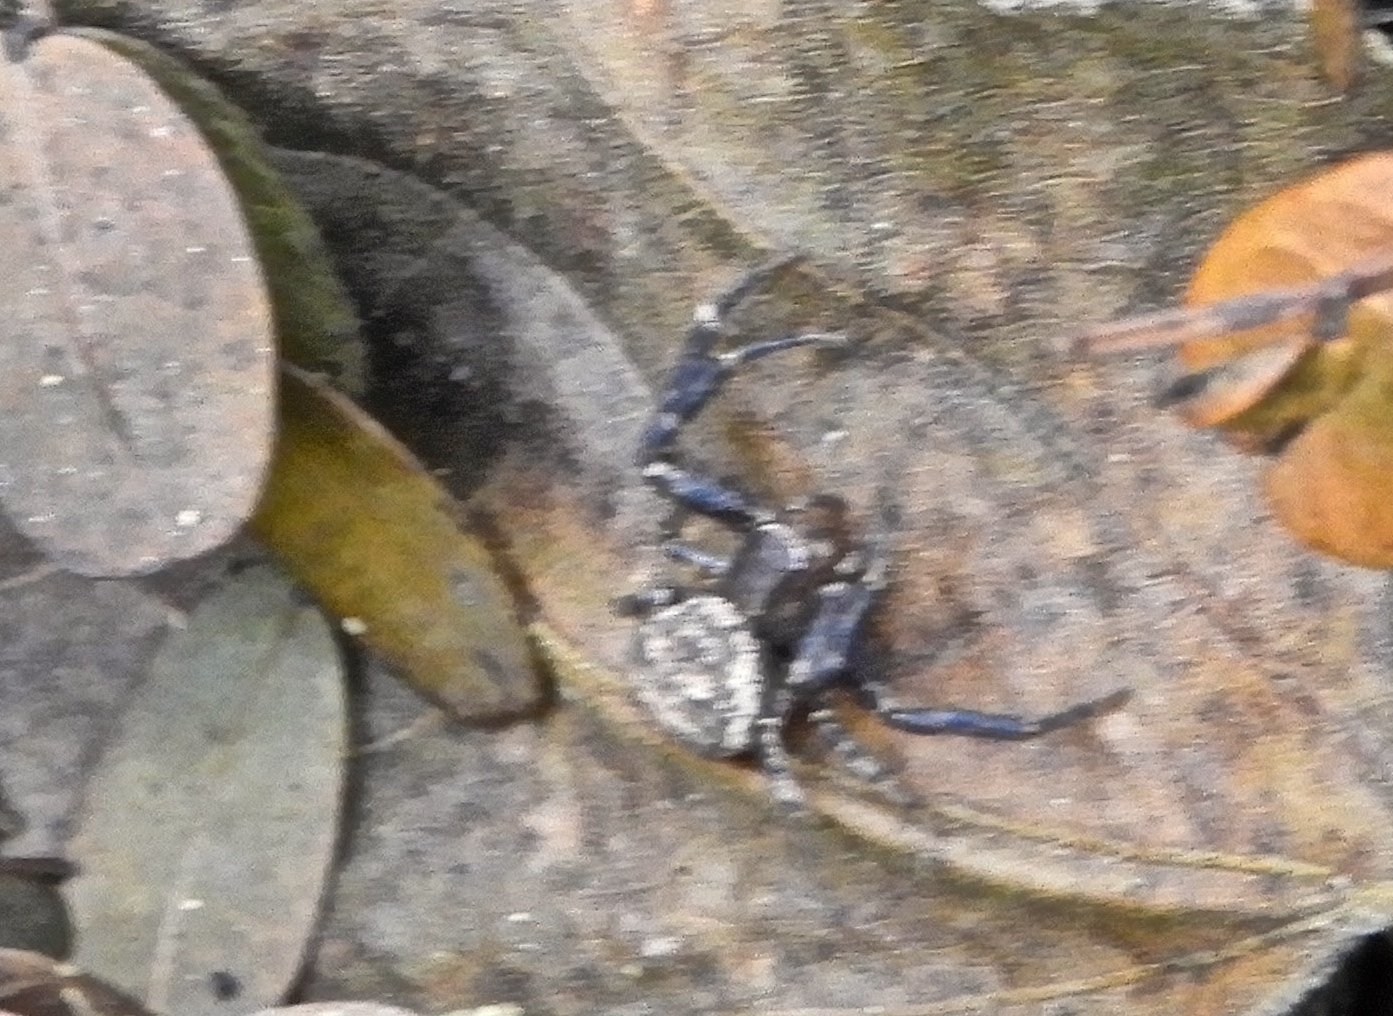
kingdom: Animalia
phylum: Arthropoda
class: Arachnida
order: Araneae
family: Thomisidae
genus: Xysticus
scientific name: Xysticus
